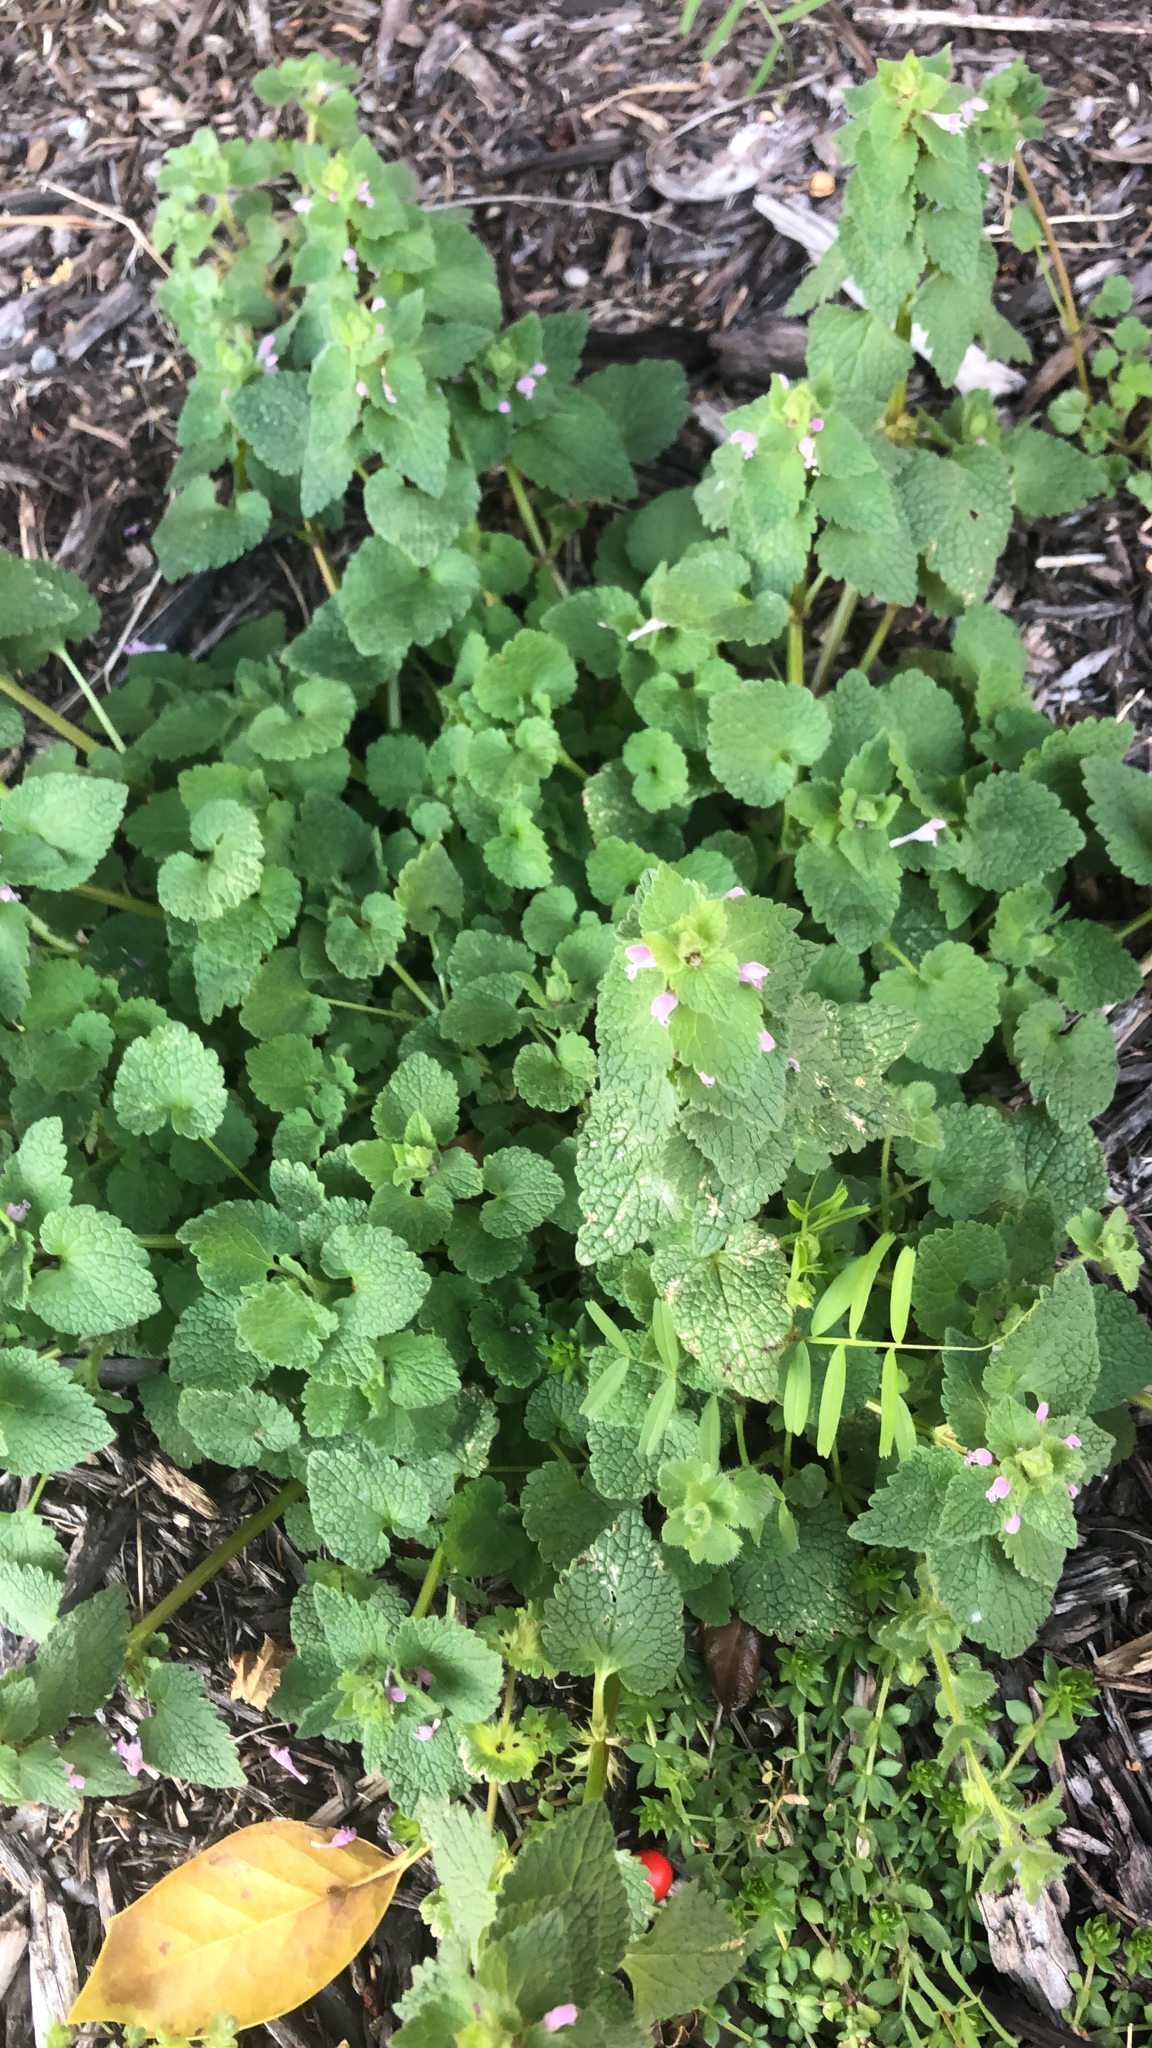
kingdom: Plantae
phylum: Tracheophyta
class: Magnoliopsida
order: Lamiales
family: Lamiaceae
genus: Lamium
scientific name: Lamium purpureum
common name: Red dead-nettle
